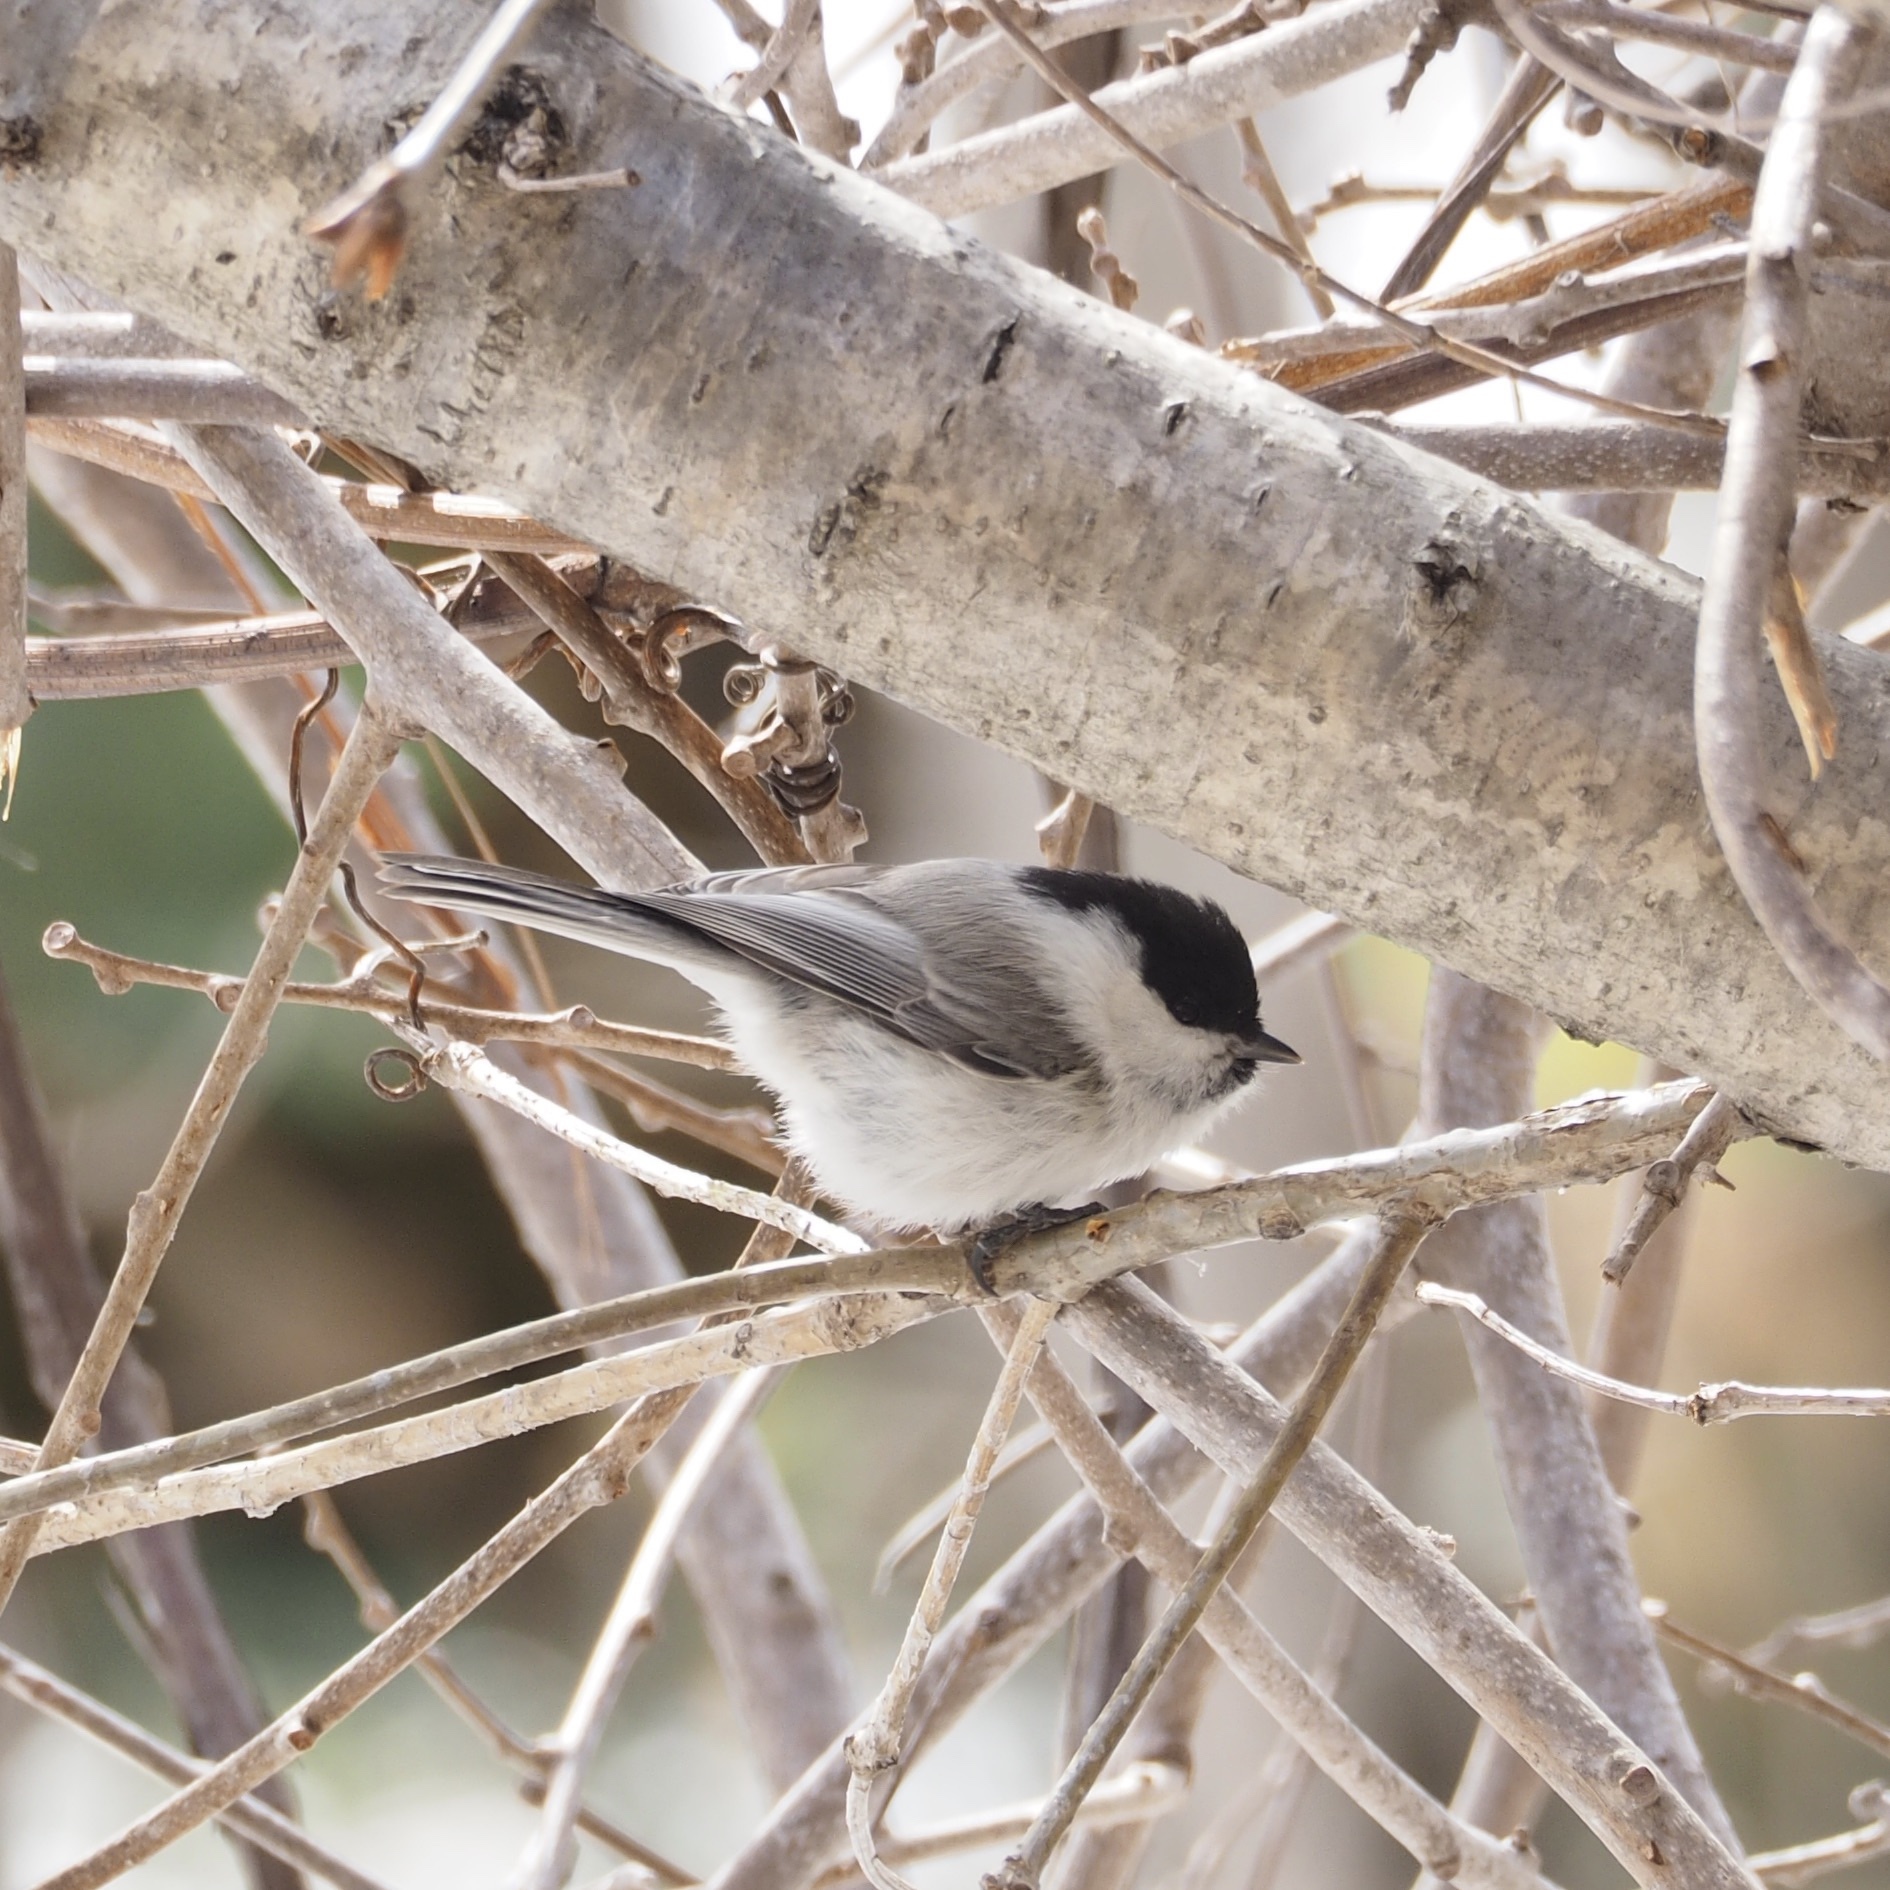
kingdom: Animalia
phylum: Chordata
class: Aves
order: Passeriformes
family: Paridae
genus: Poecile
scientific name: Poecile montanus
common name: Willow tit
